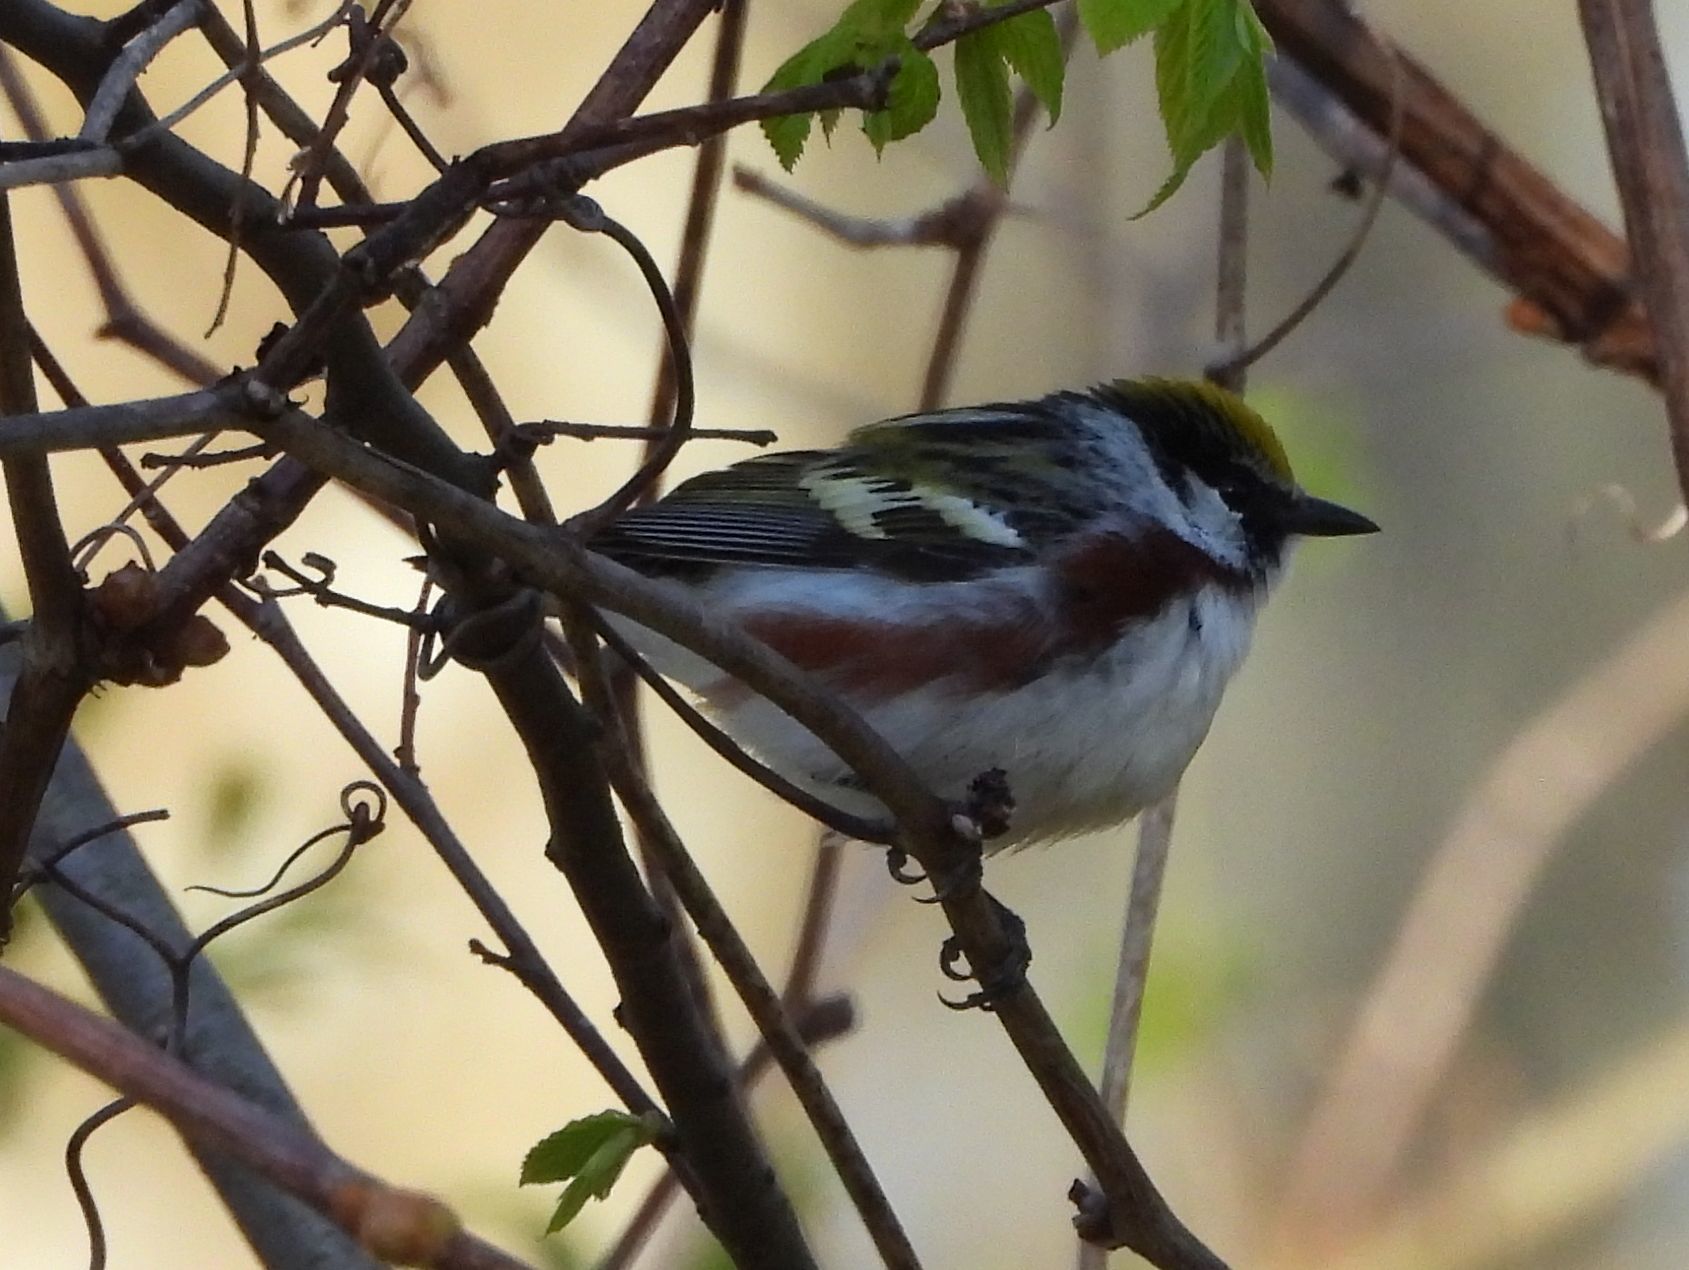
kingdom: Animalia
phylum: Chordata
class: Aves
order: Passeriformes
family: Parulidae
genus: Setophaga
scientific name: Setophaga pensylvanica
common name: Chestnut-sided warbler
